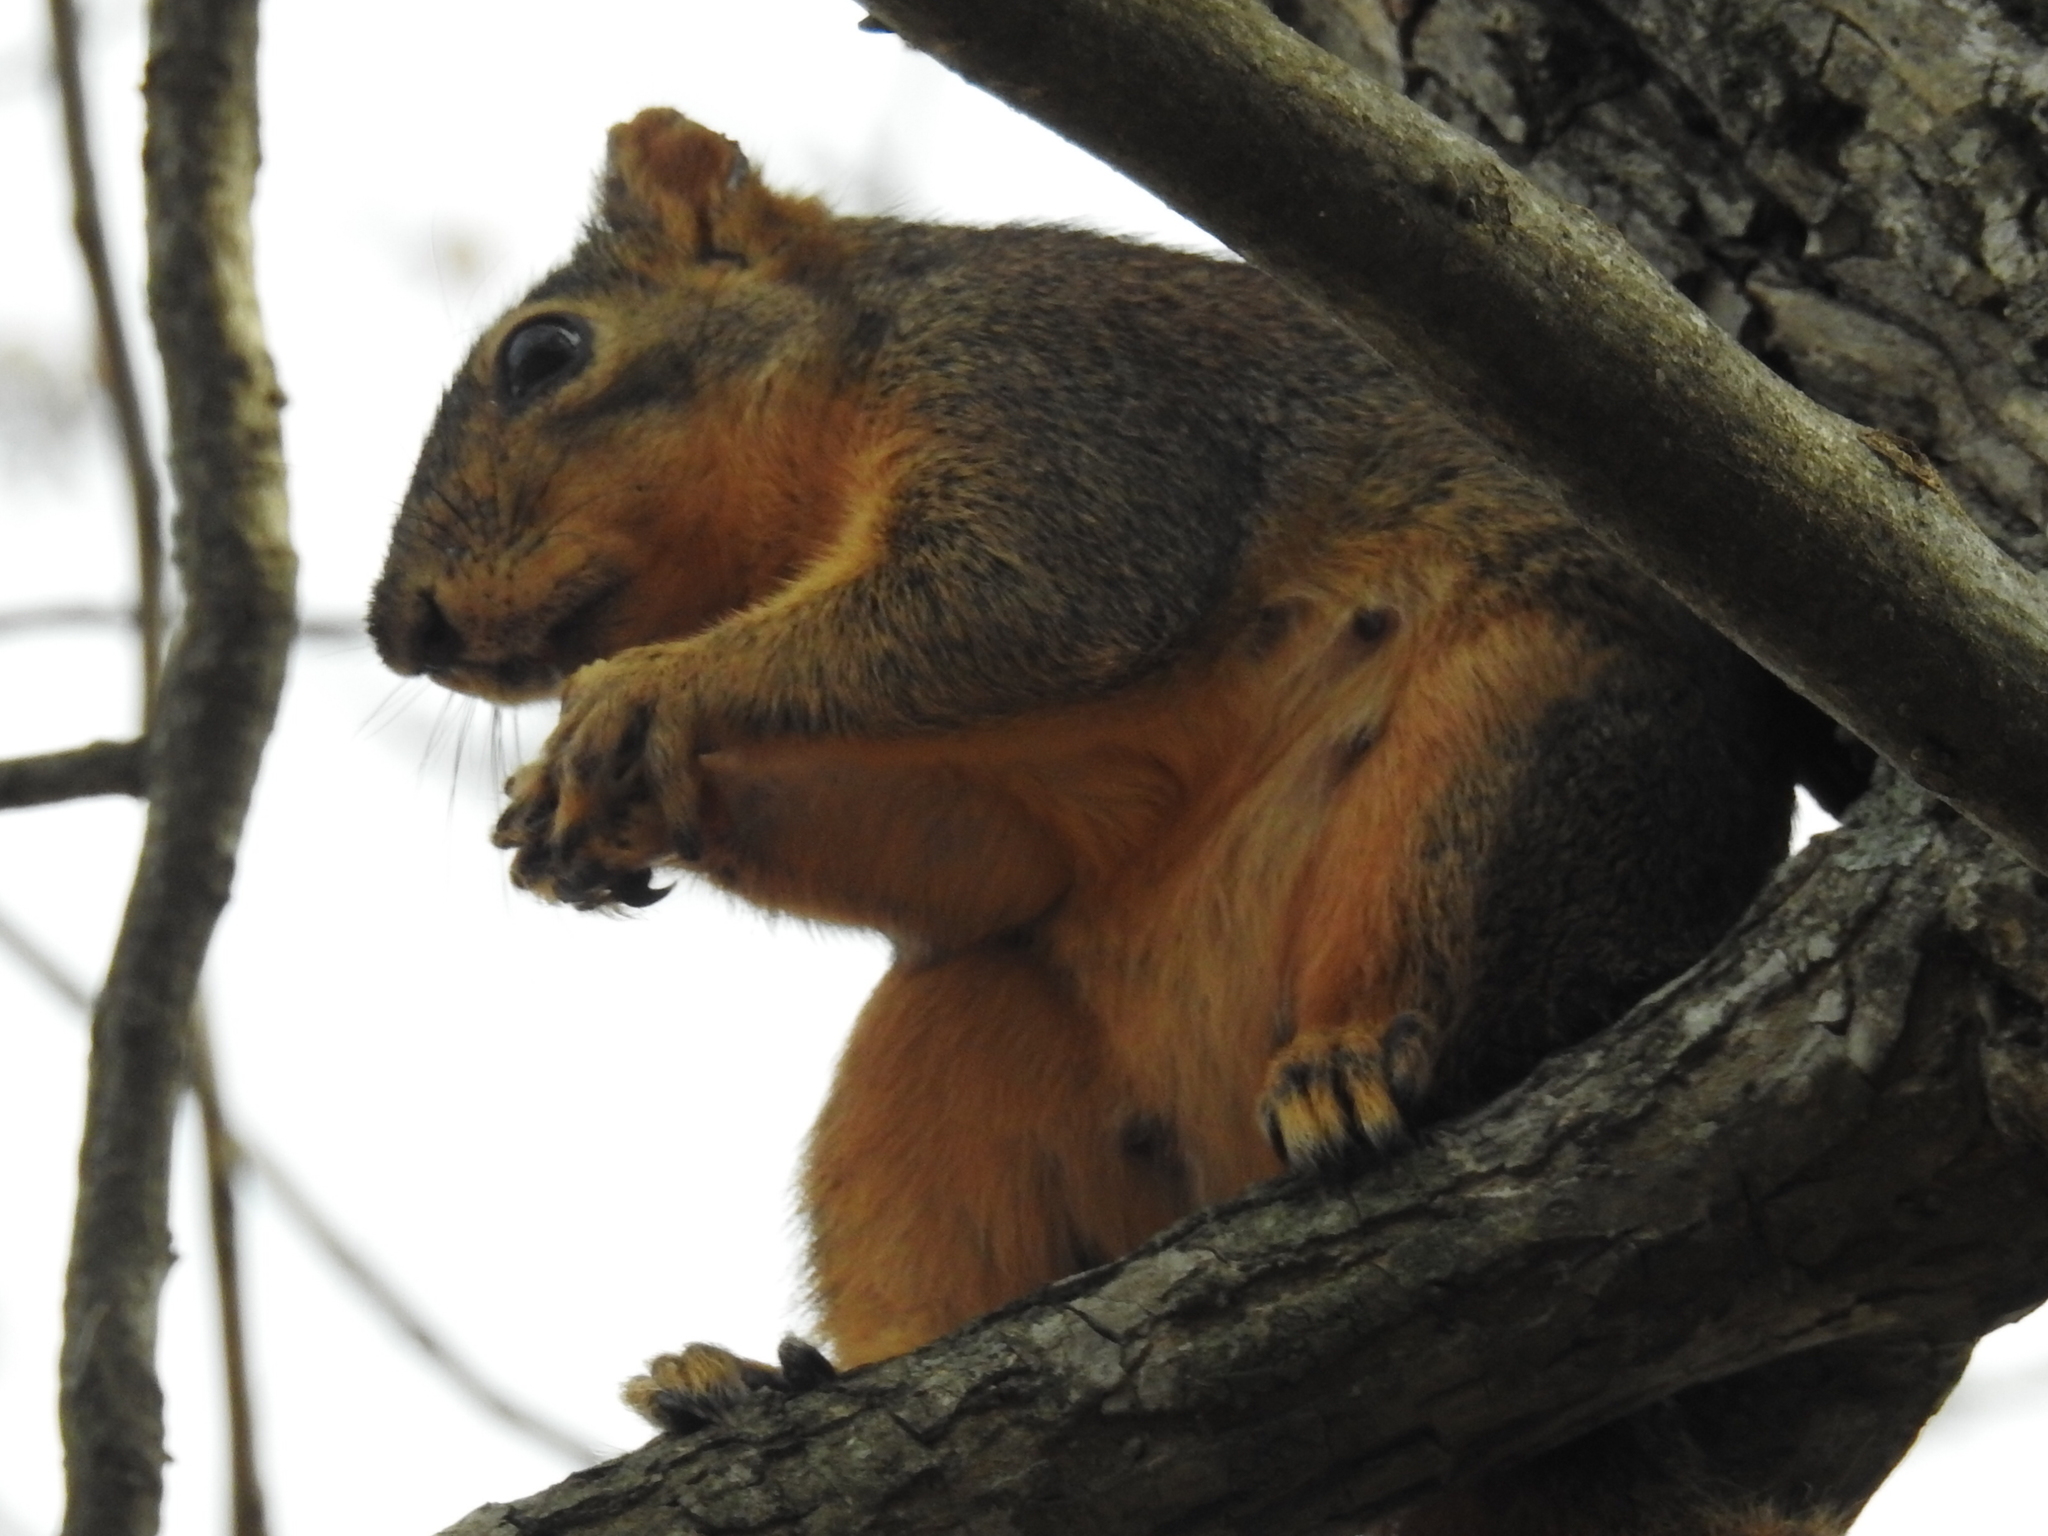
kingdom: Animalia
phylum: Chordata
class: Mammalia
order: Rodentia
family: Sciuridae
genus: Sciurus
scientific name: Sciurus niger
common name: Fox squirrel
